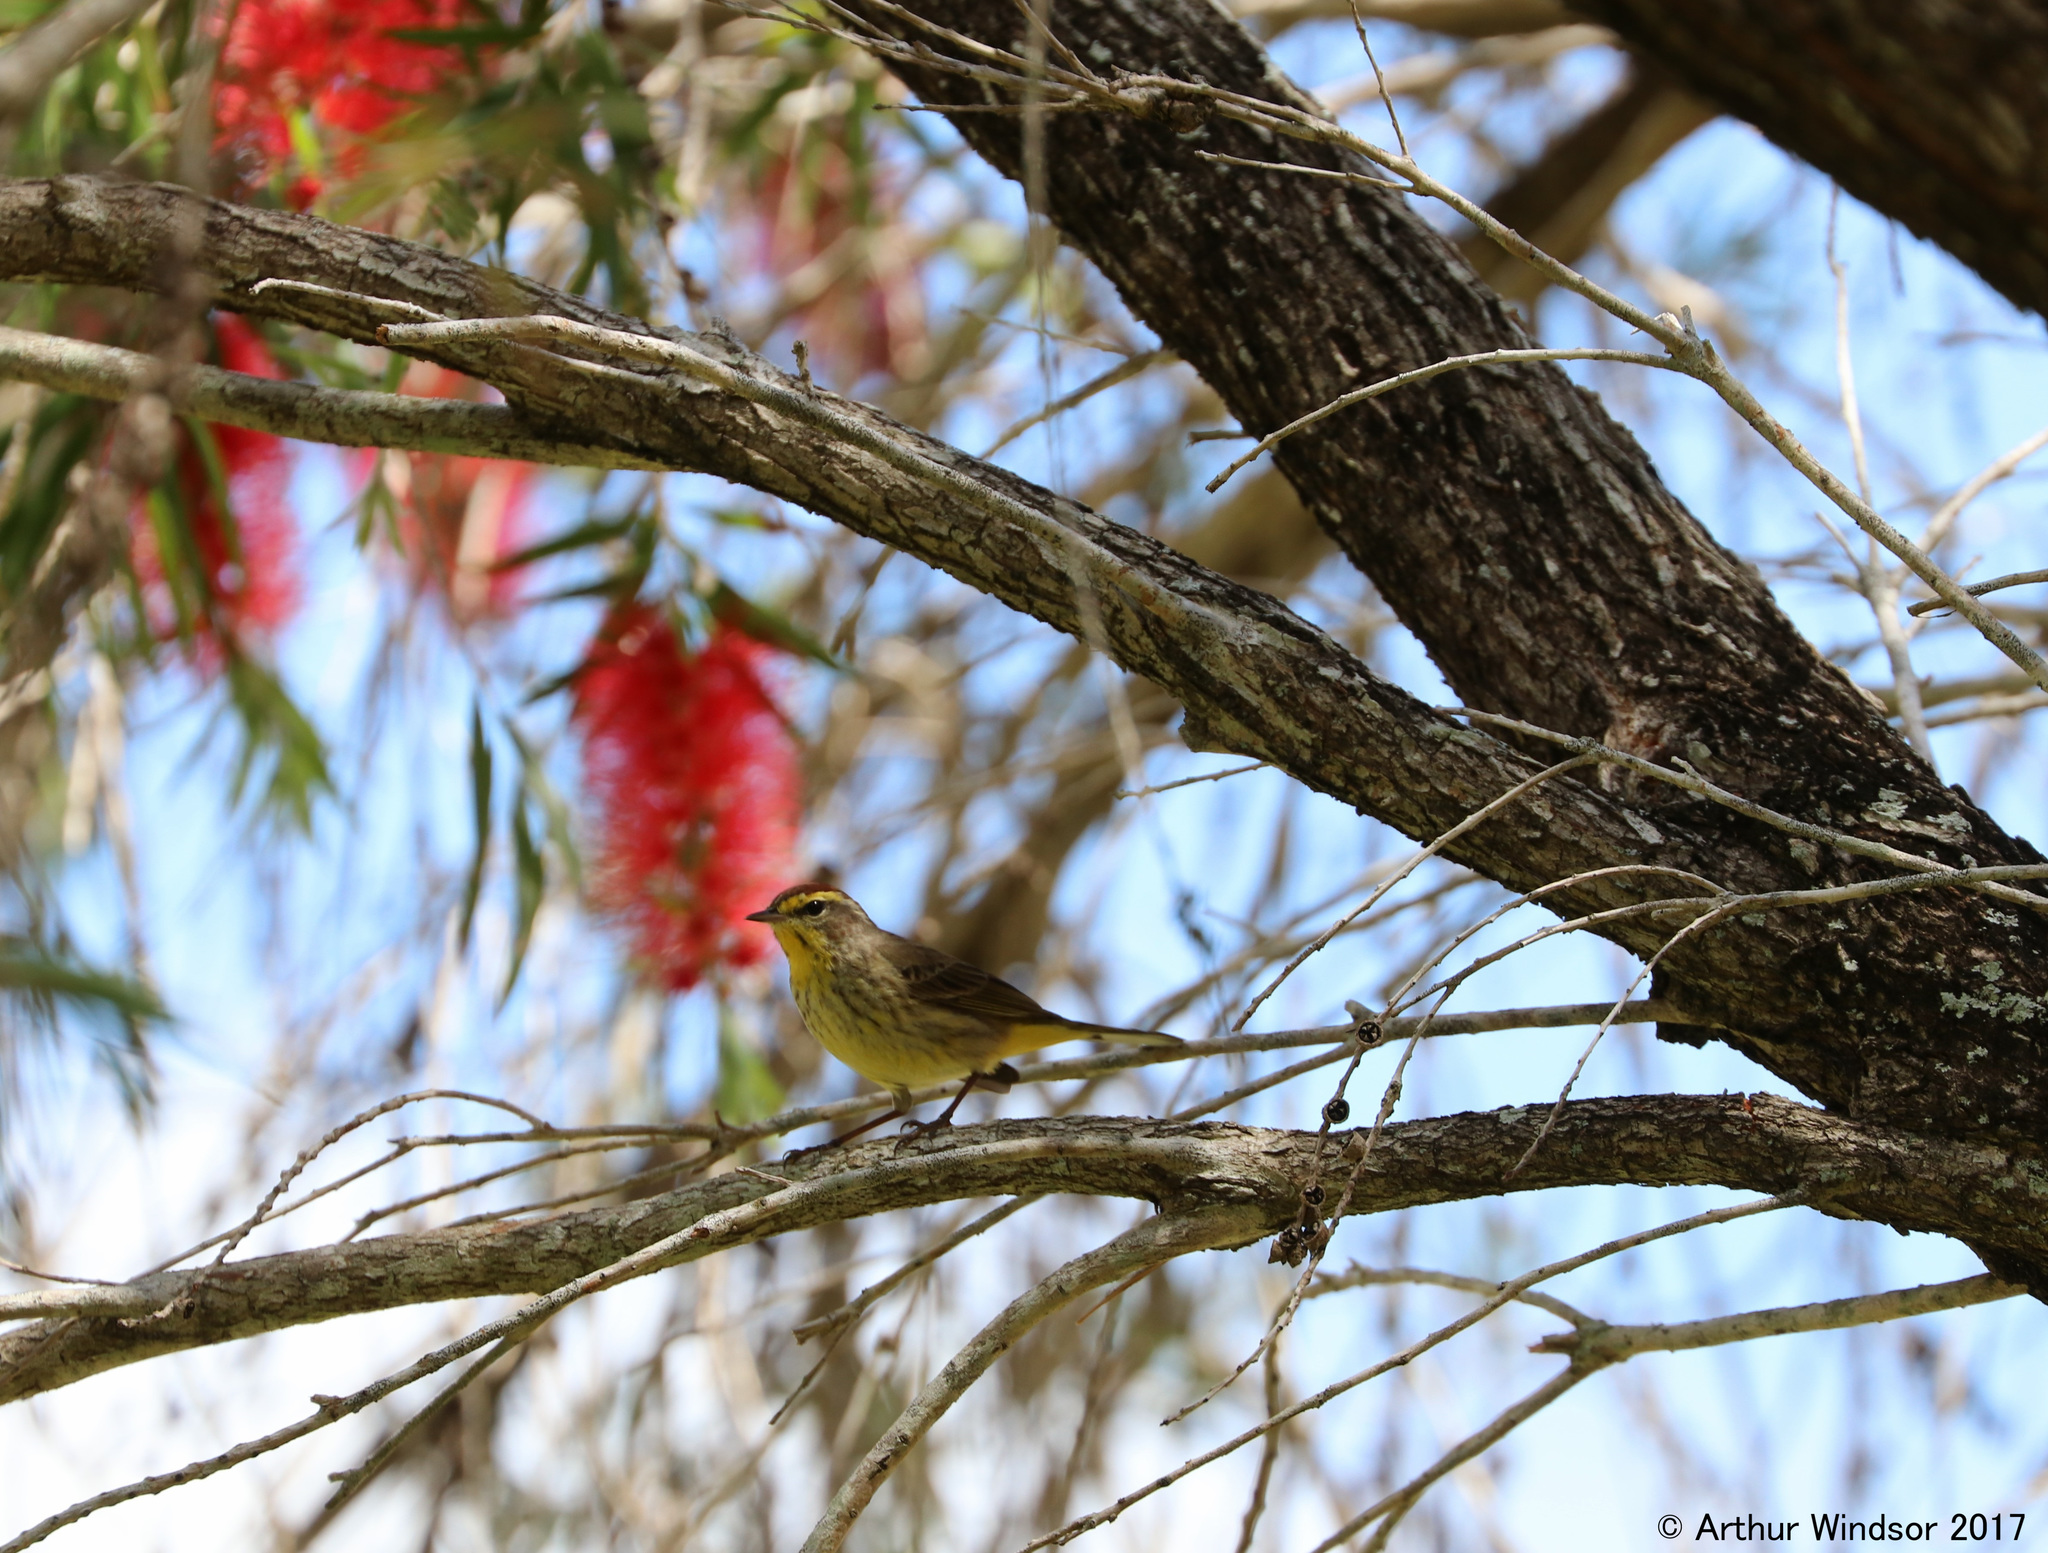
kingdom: Animalia
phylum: Chordata
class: Aves
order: Passeriformes
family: Parulidae
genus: Setophaga
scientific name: Setophaga palmarum
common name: Palm warbler
